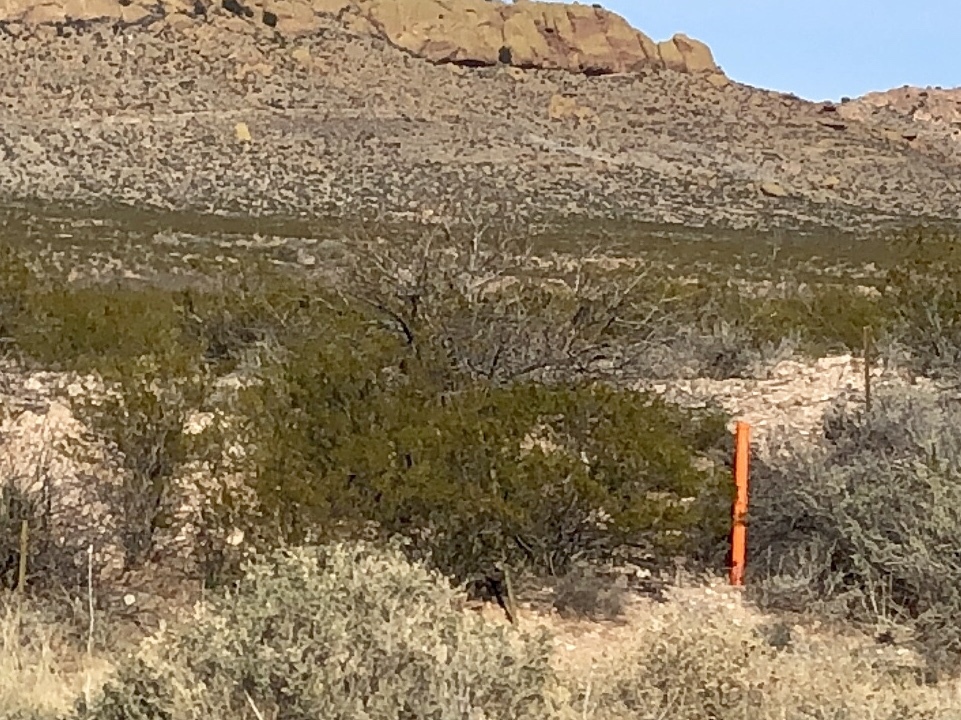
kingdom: Plantae
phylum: Tracheophyta
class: Magnoliopsida
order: Zygophyllales
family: Zygophyllaceae
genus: Larrea
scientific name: Larrea tridentata
